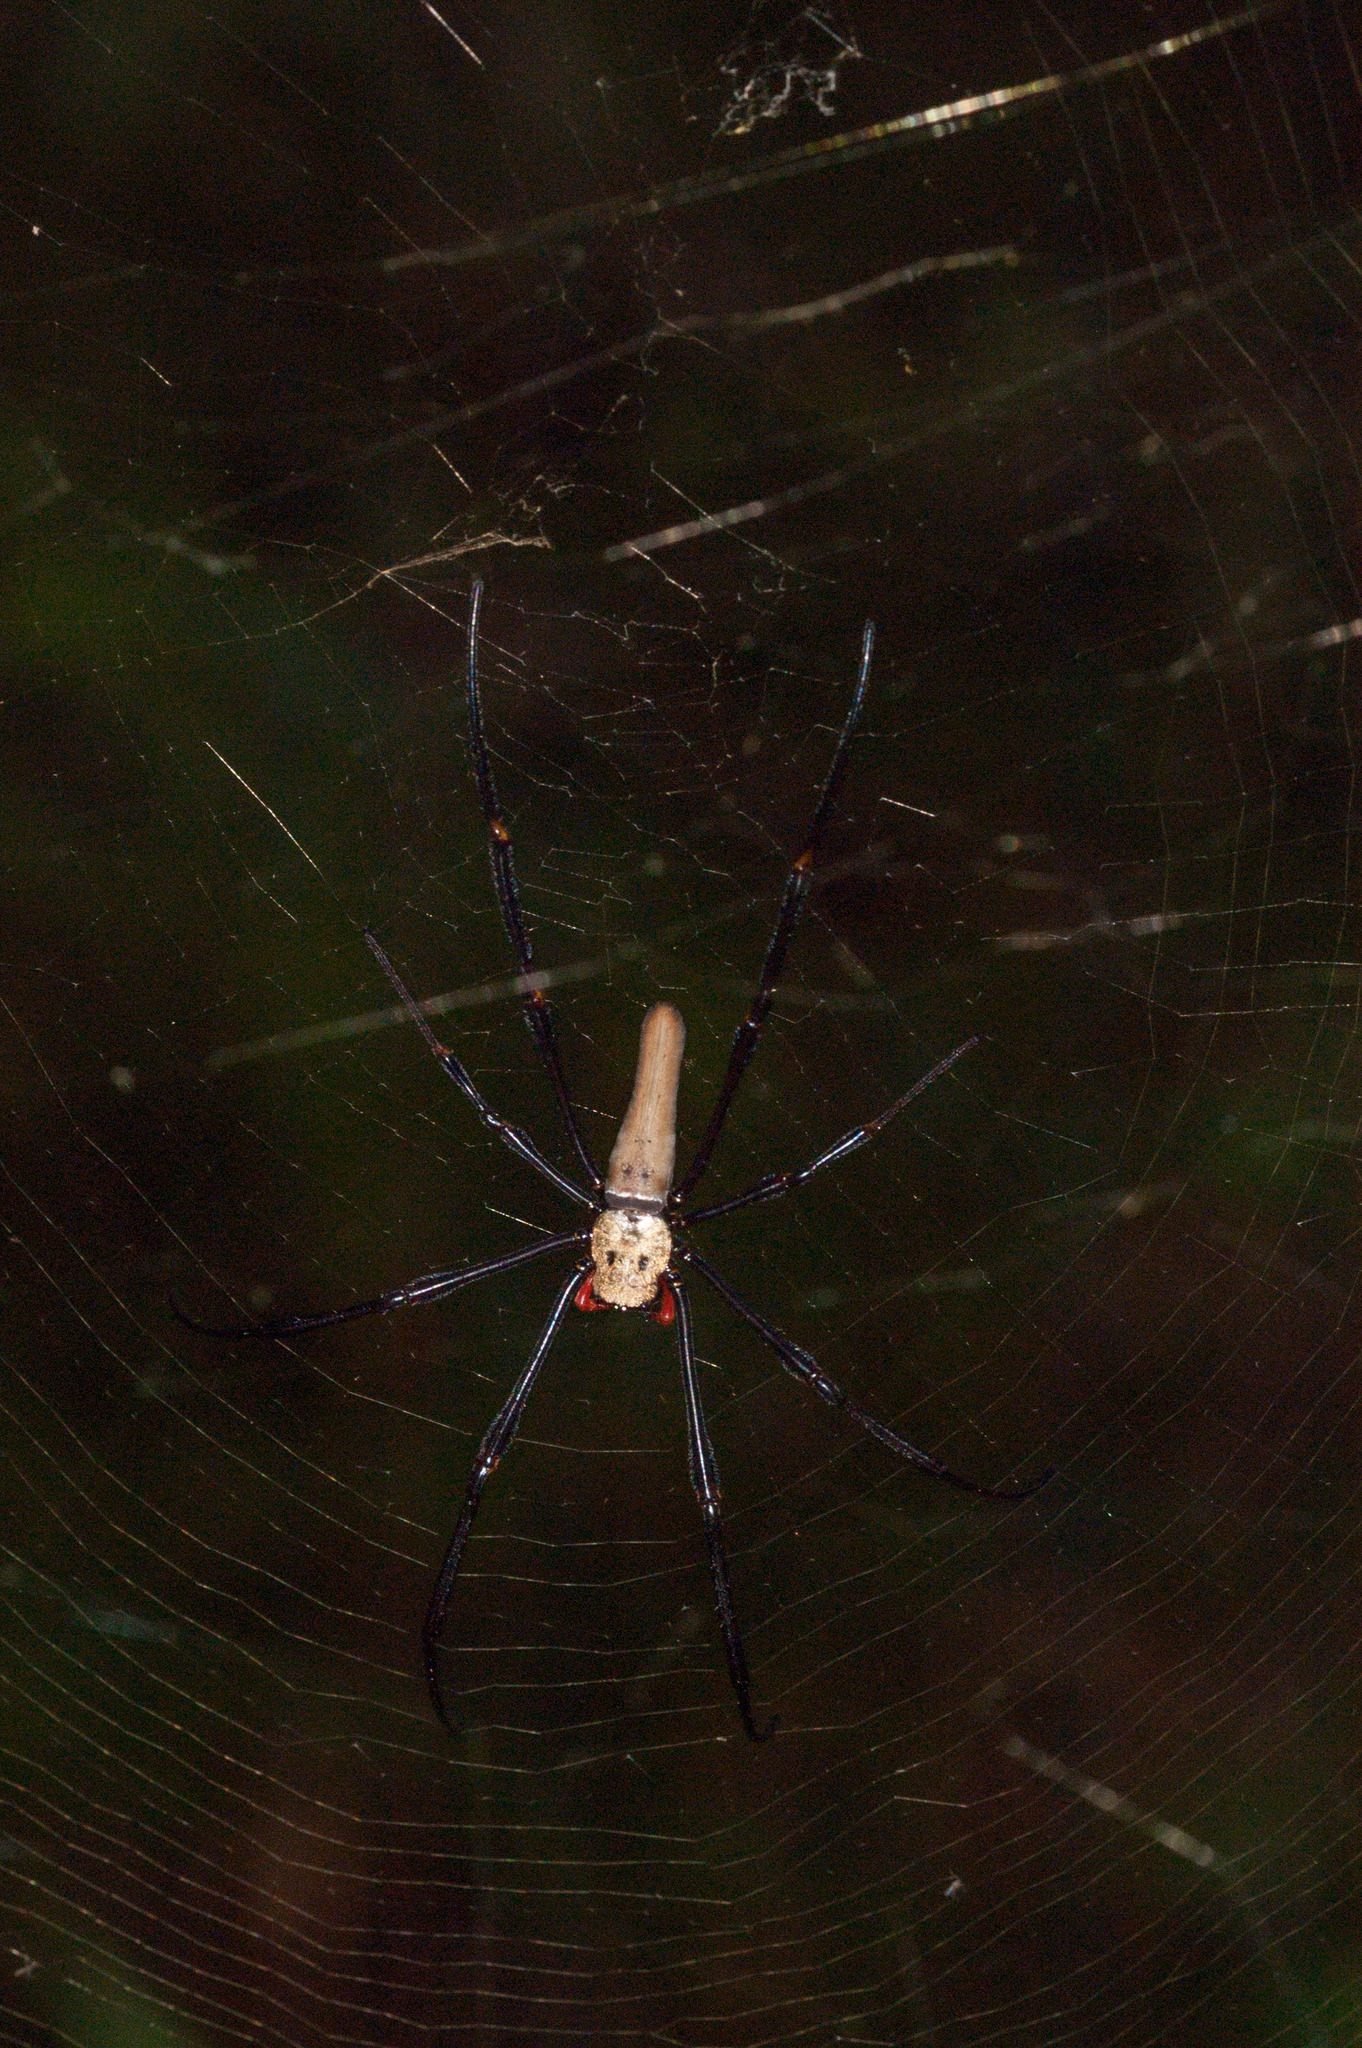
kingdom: Animalia
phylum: Arthropoda
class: Arachnida
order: Araneae
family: Araneidae
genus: Nephila
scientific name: Nephila pilipes
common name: Giant golden orb weaver
